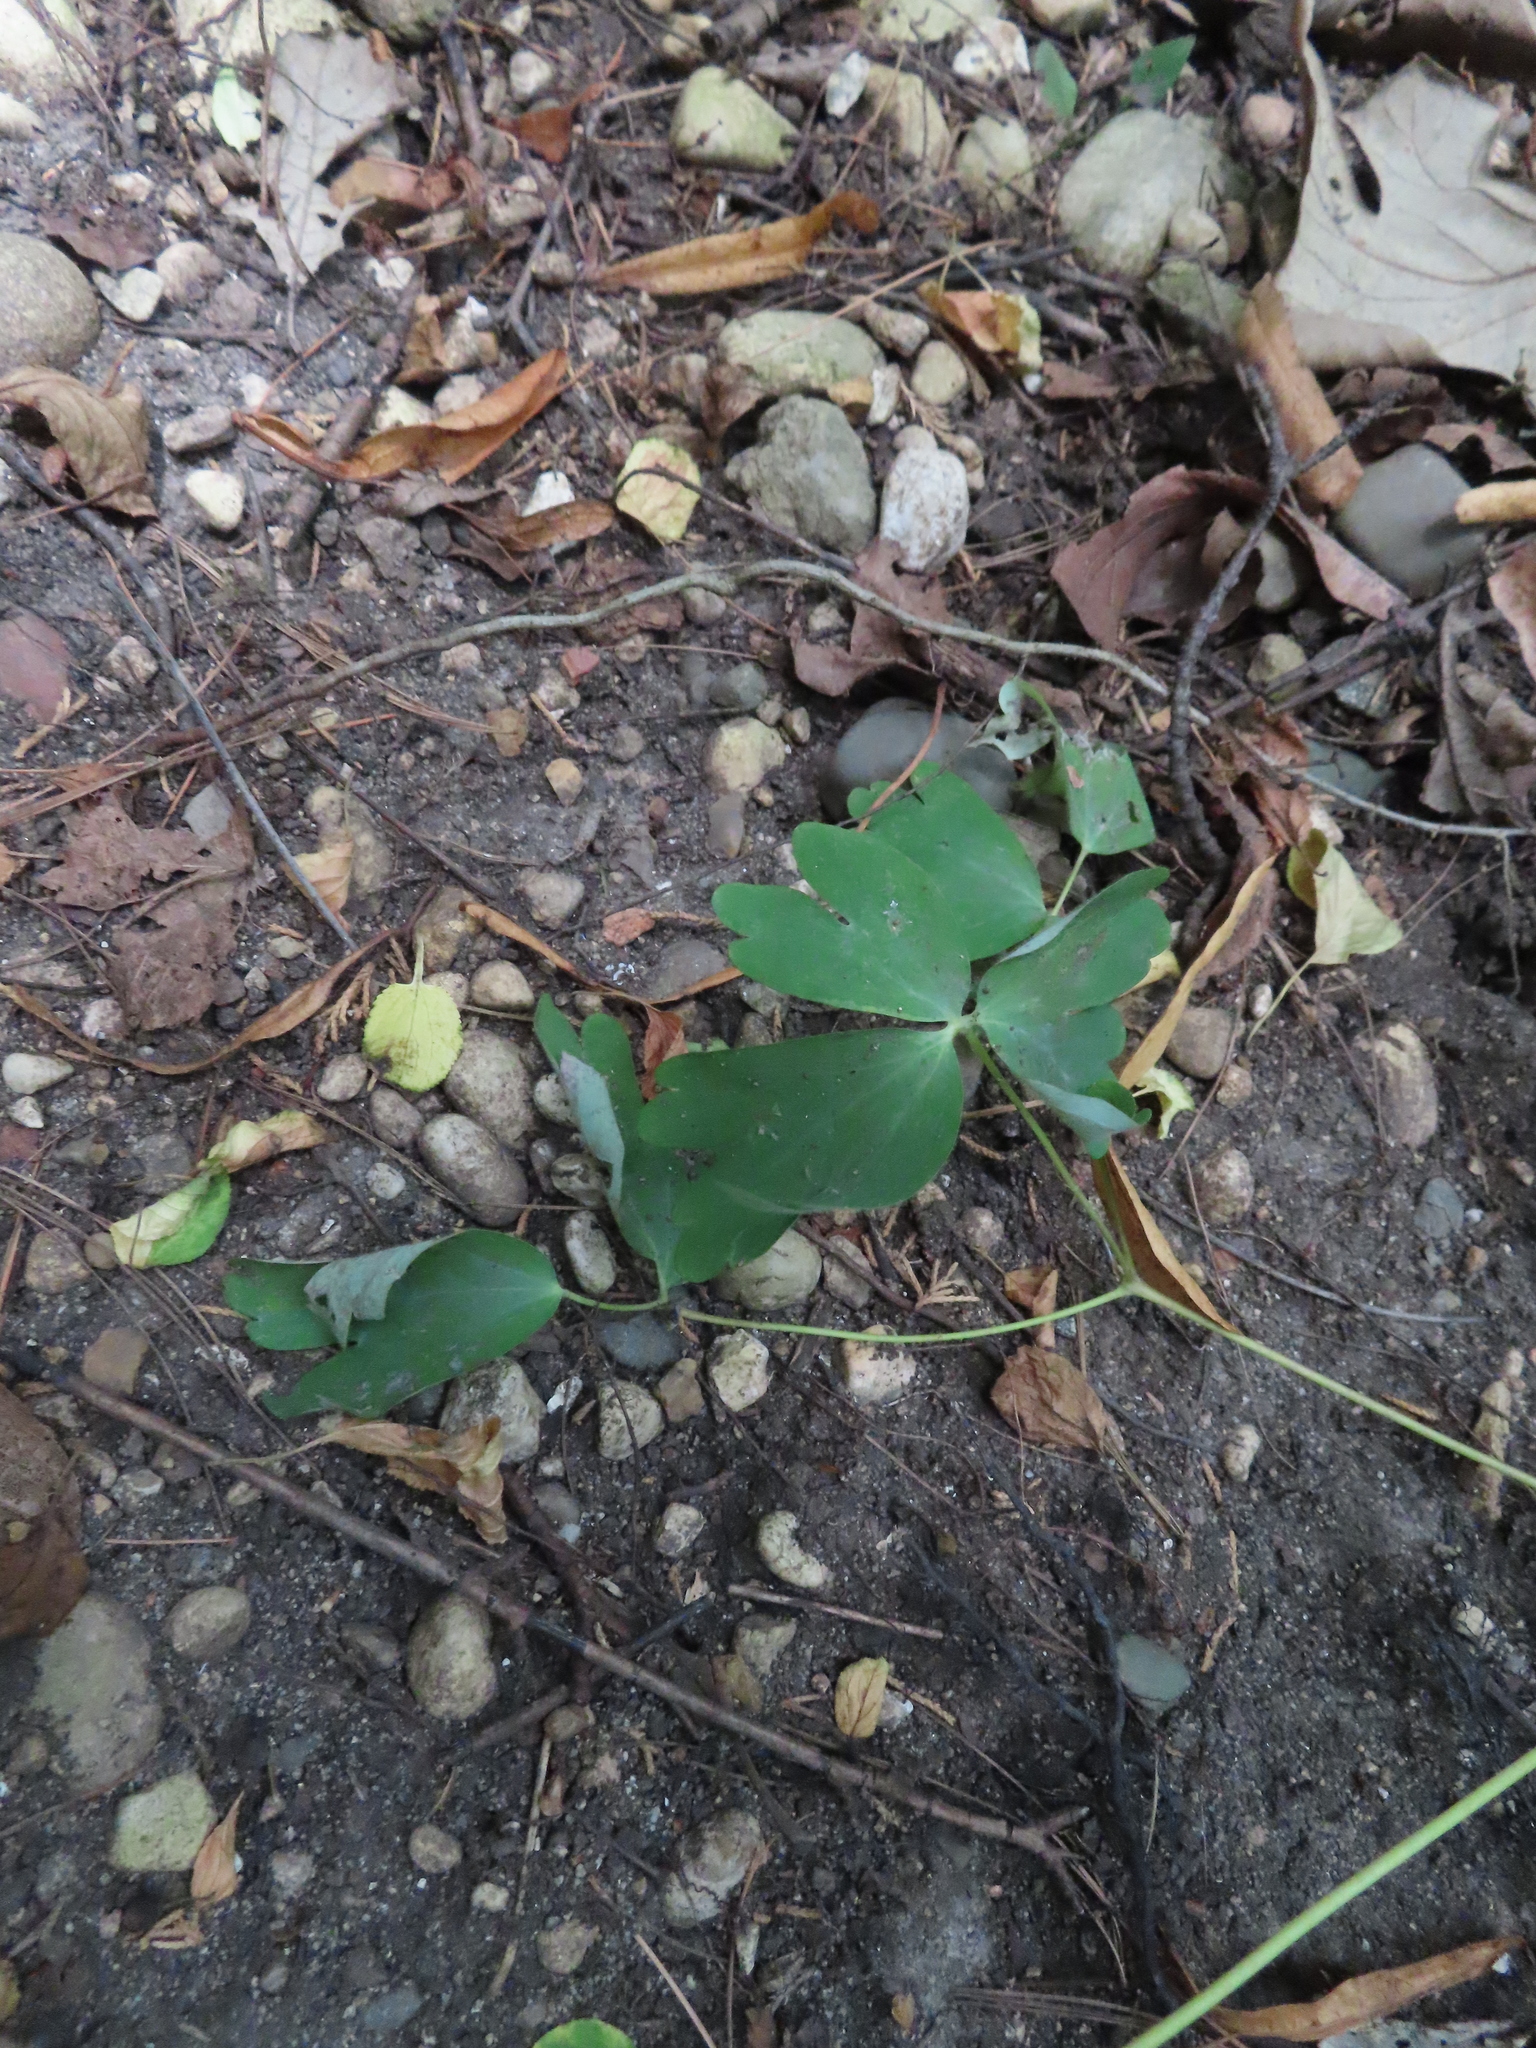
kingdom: Plantae
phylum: Tracheophyta
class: Magnoliopsida
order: Ranunculales
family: Ranunculaceae
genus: Aquilegia
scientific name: Aquilegia canadensis
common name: American columbine
